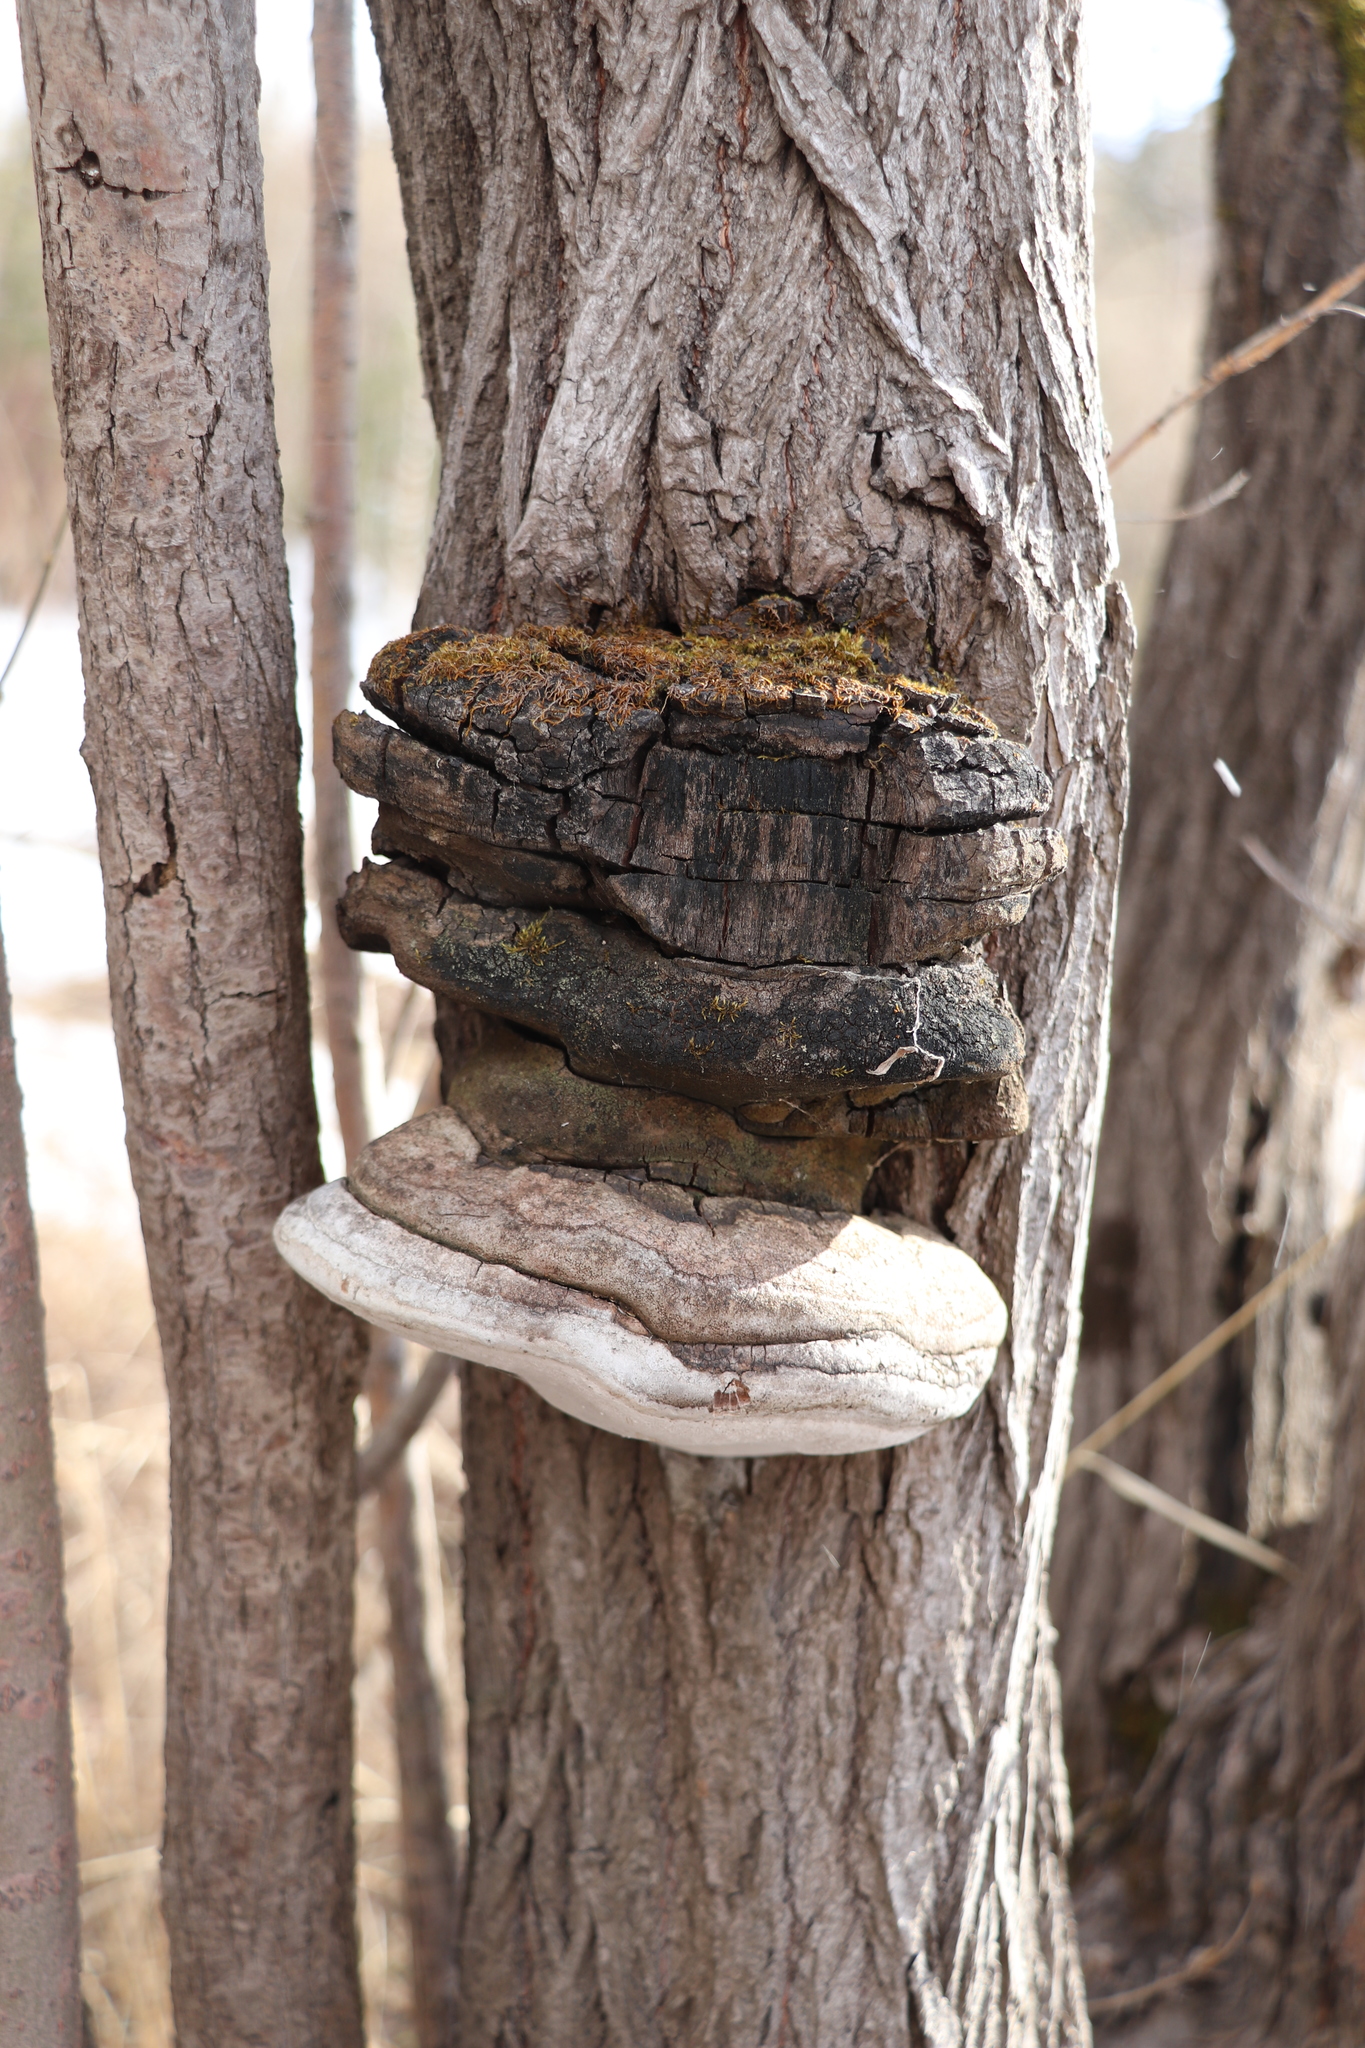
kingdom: Fungi
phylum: Basidiomycota
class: Agaricomycetes
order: Hymenochaetales
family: Hymenochaetaceae
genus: Phellinus
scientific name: Phellinus igniarius
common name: Willow bracket
